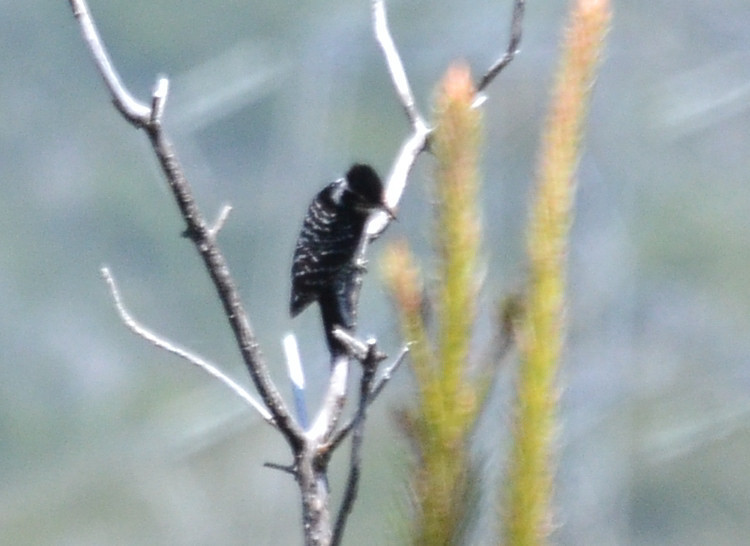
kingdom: Animalia
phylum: Chordata
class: Aves
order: Piciformes
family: Picidae
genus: Dryobates
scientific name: Dryobates nuttallii
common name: Nuttall's woodpecker
